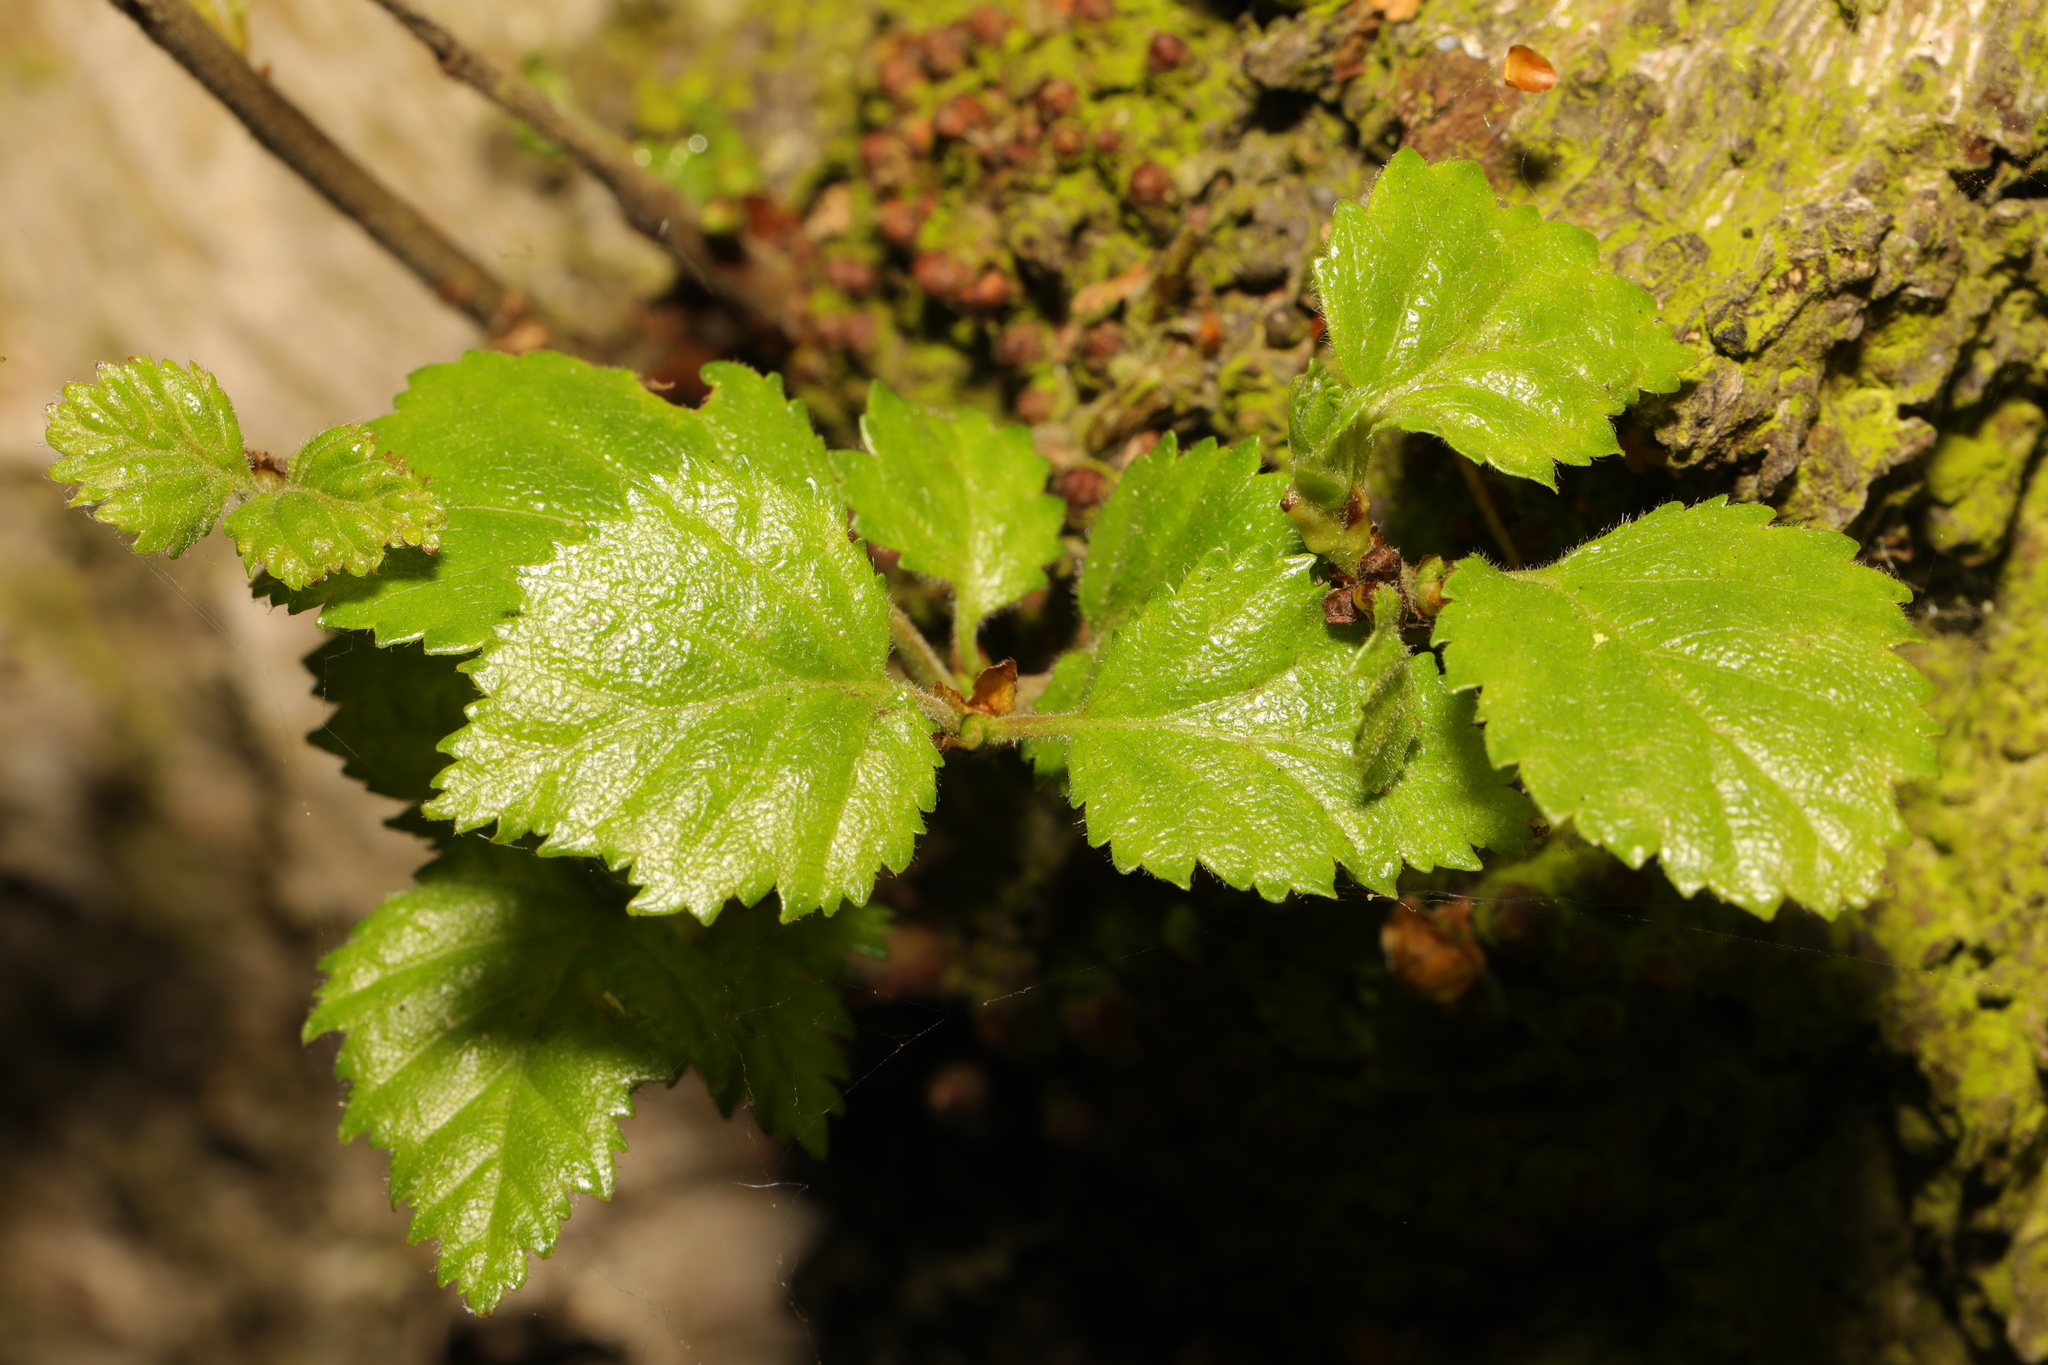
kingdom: Plantae
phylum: Tracheophyta
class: Magnoliopsida
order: Fagales
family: Betulaceae
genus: Betula
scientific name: Betula pubescens
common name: Downy birch
